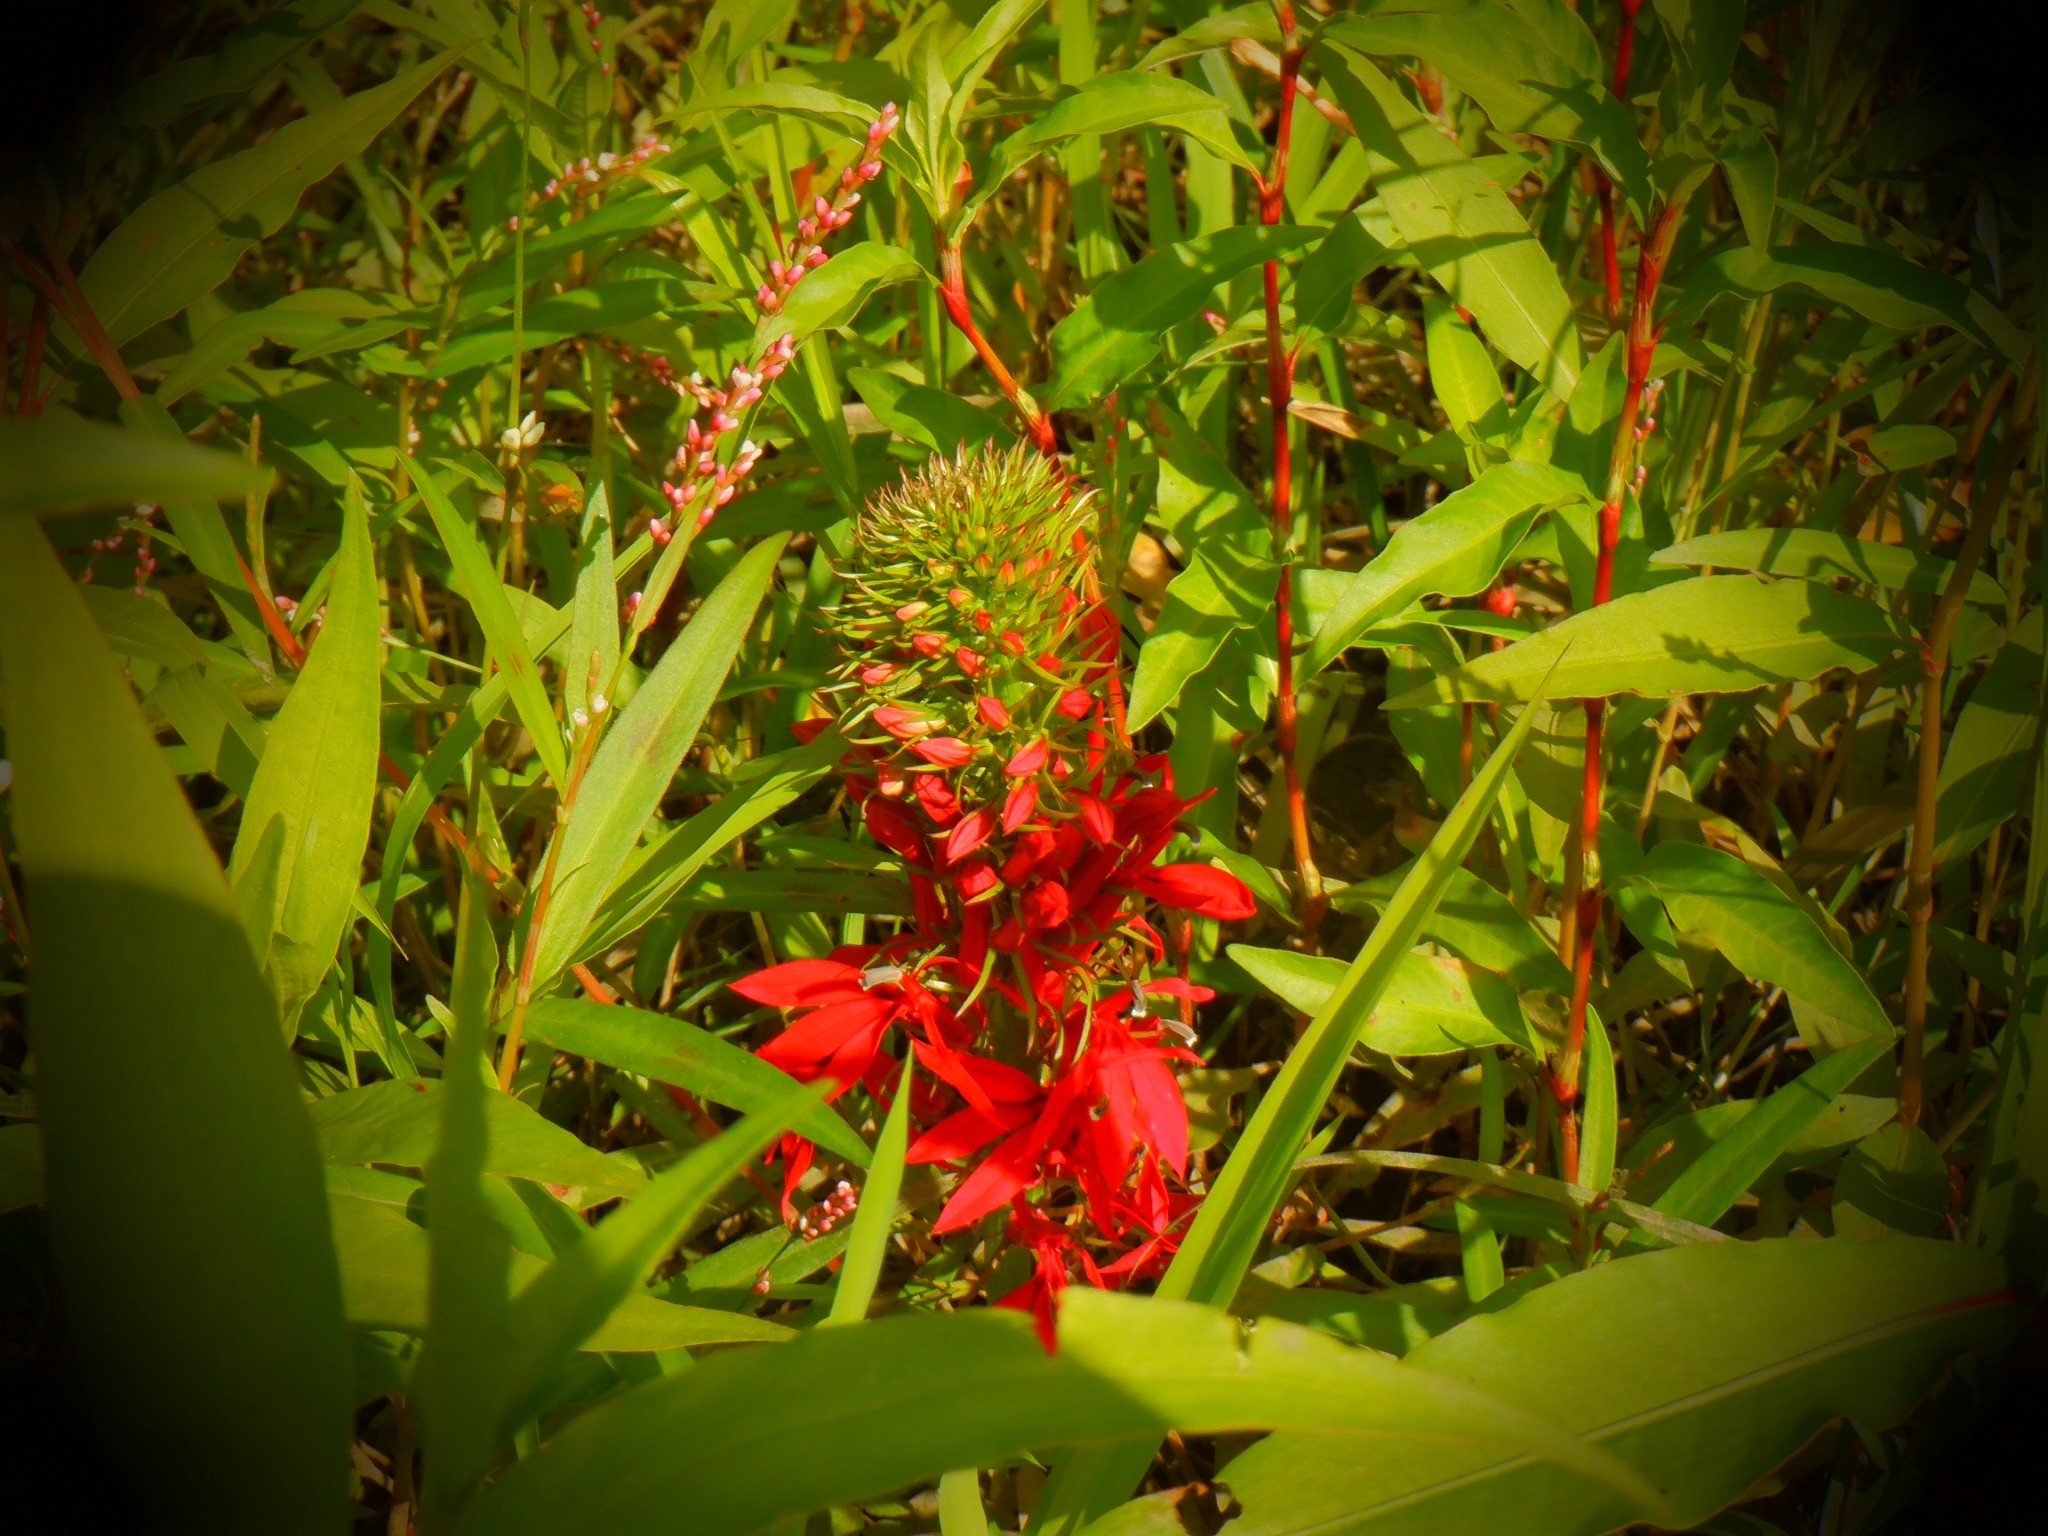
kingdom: Plantae
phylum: Tracheophyta
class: Magnoliopsida
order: Asterales
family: Campanulaceae
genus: Lobelia
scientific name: Lobelia cardinalis
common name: Cardinal flower
